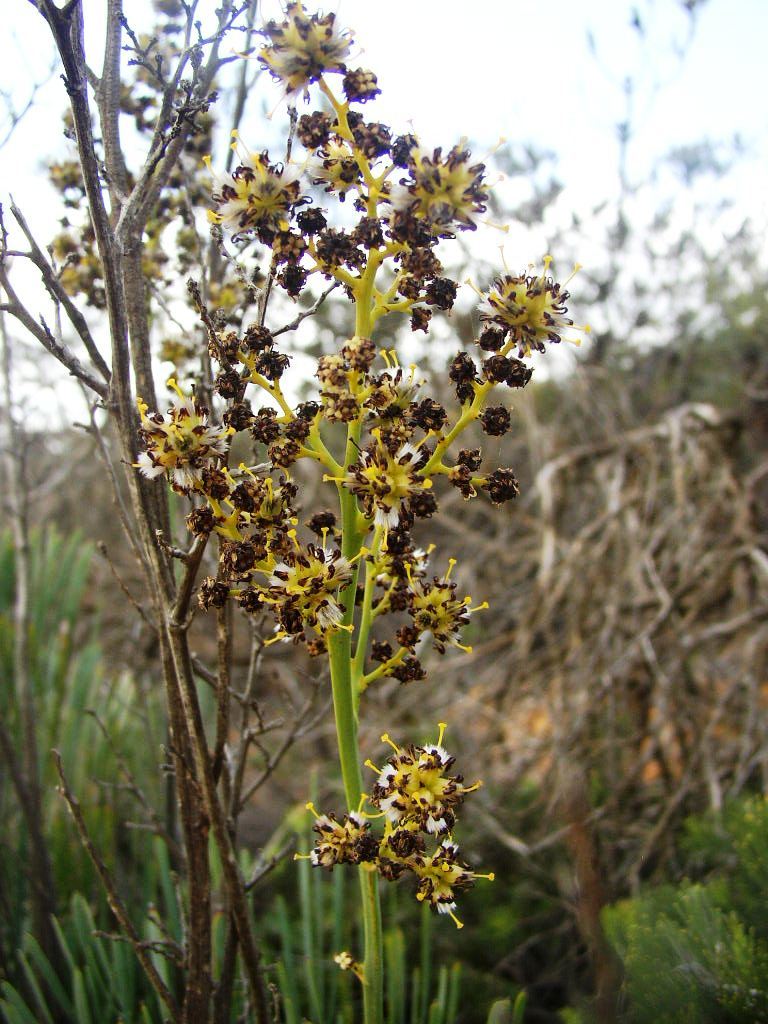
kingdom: Plantae
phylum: Tracheophyta
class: Magnoliopsida
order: Proteales
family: Proteaceae
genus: Stirlingia
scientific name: Stirlingia latifolia
